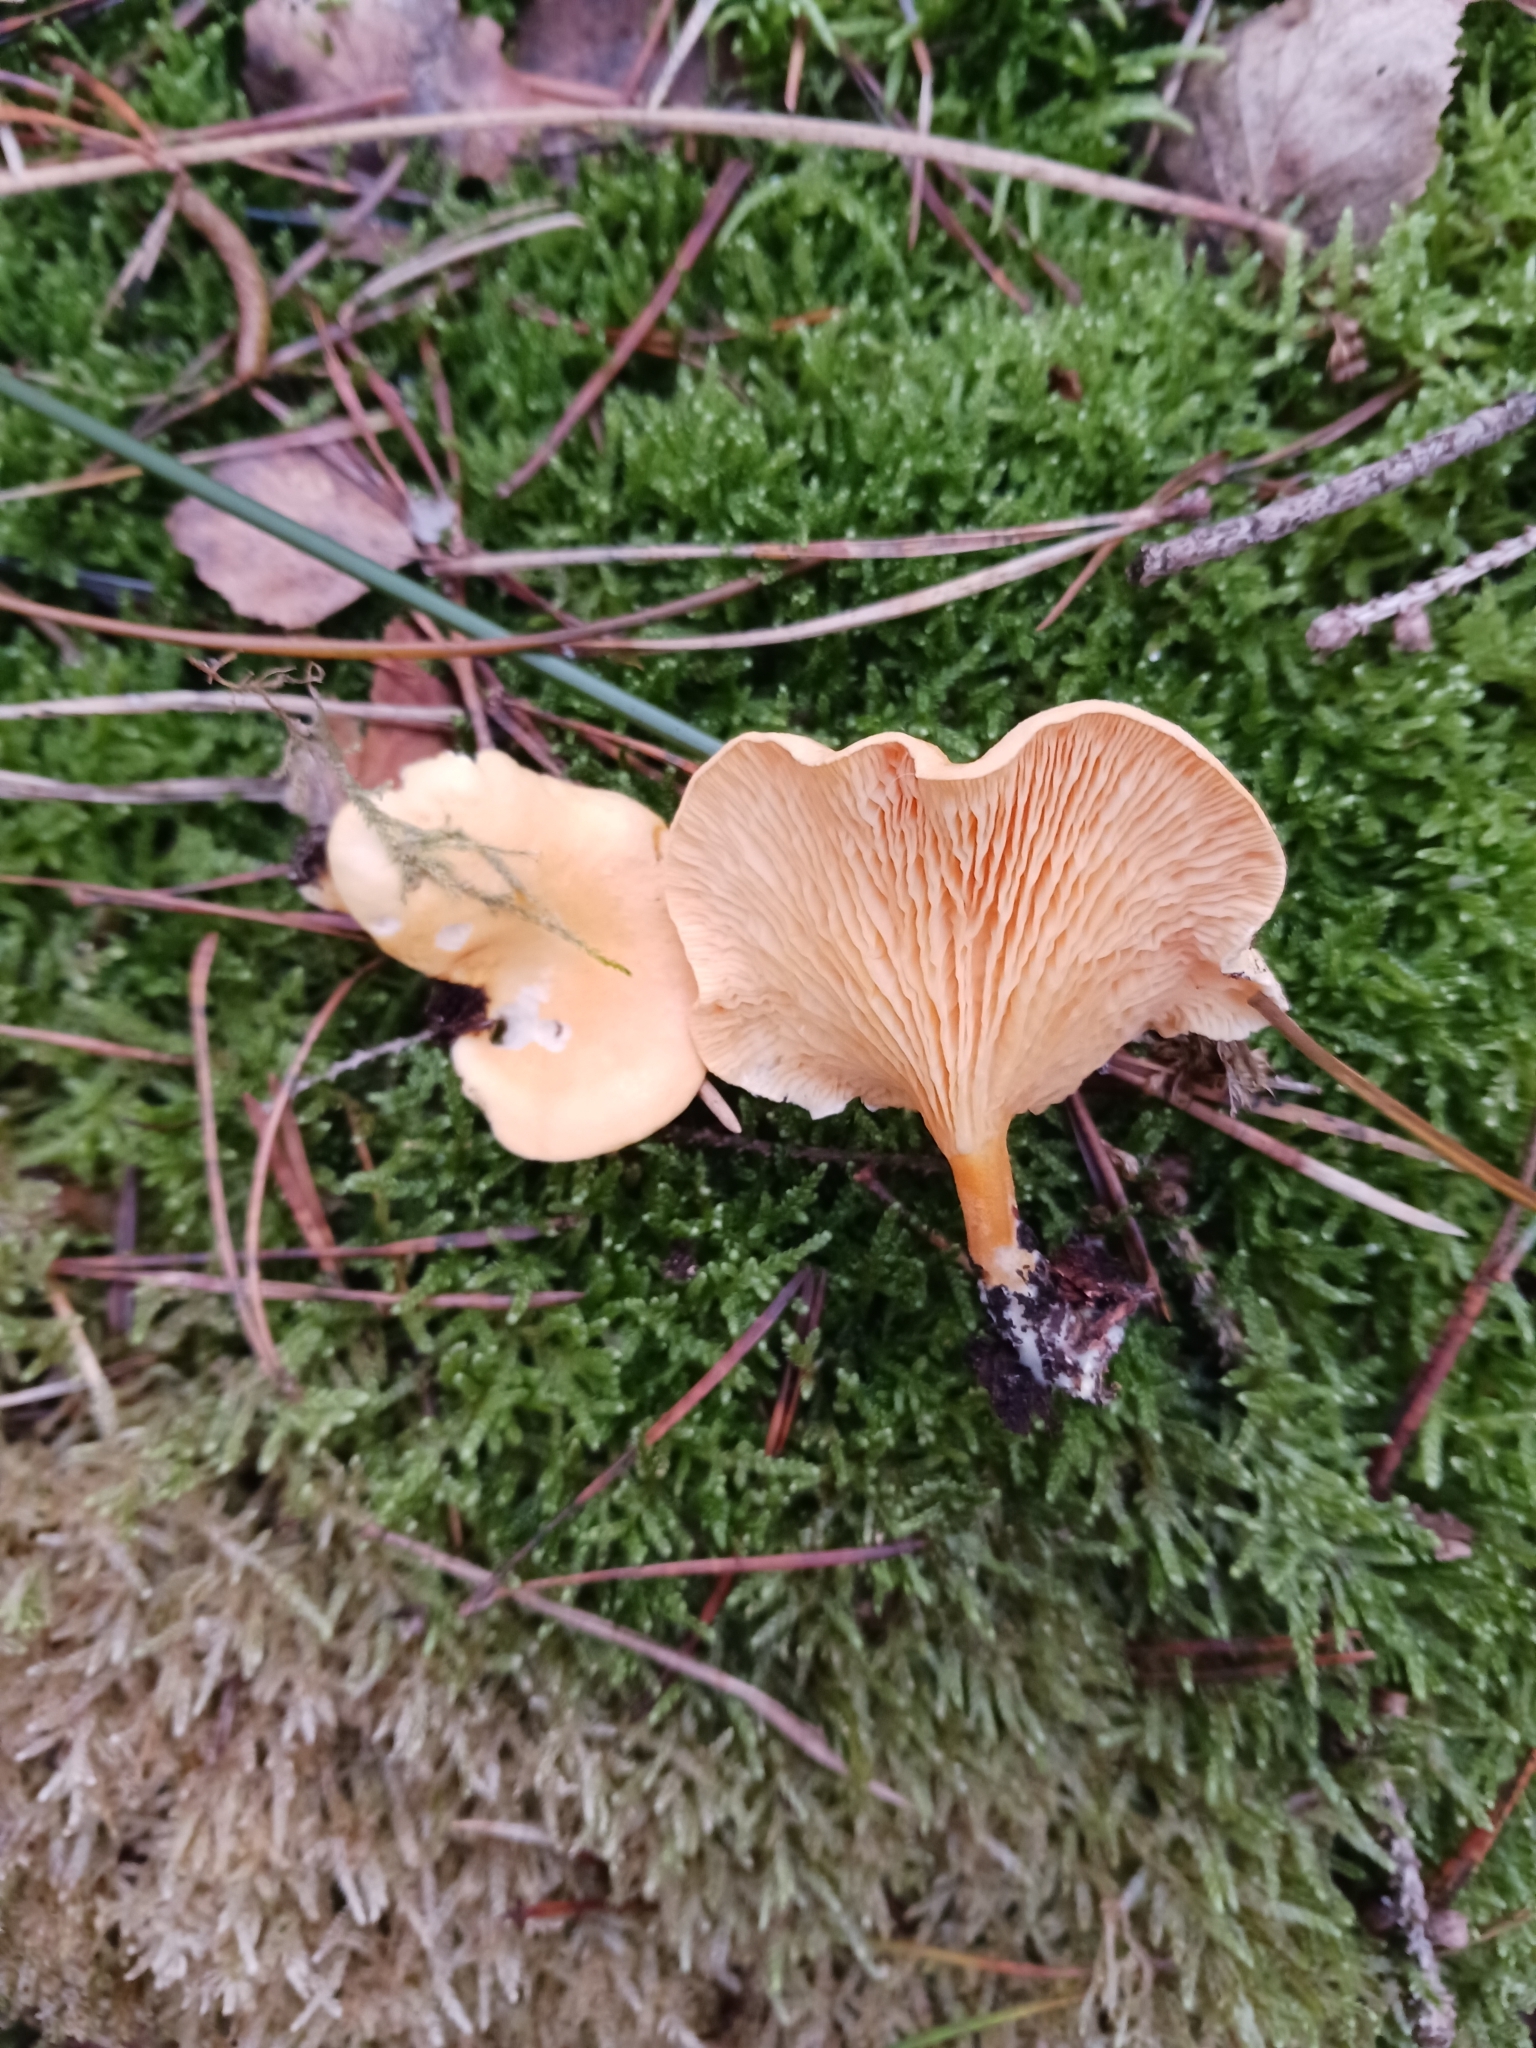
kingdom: Fungi
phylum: Basidiomycota
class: Agaricomycetes
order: Boletales
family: Hygrophoropsidaceae
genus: Hygrophoropsis
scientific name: Hygrophoropsis aurantiaca
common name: False chanterelle
